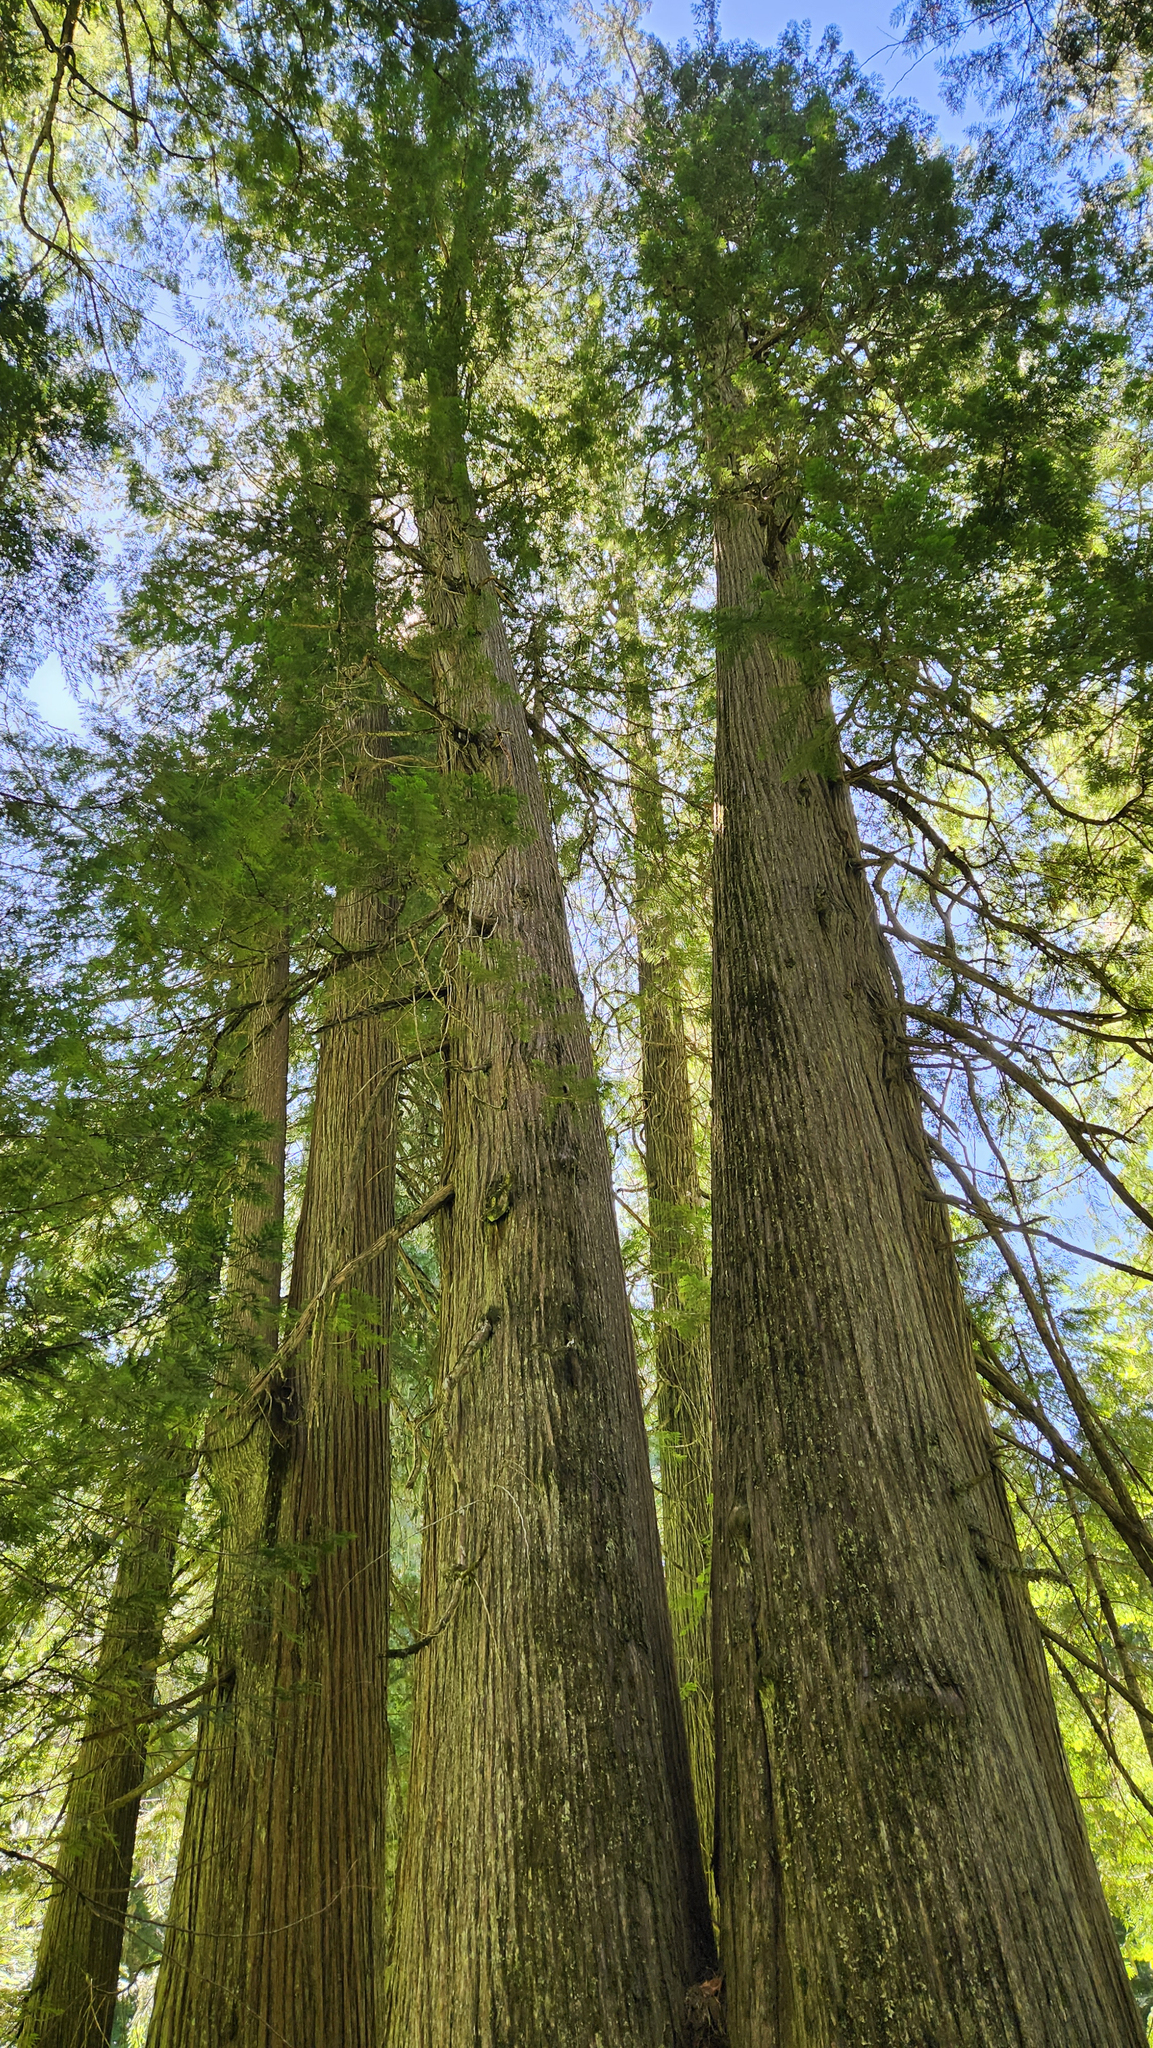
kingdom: Plantae
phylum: Tracheophyta
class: Pinopsida
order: Pinales
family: Cupressaceae
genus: Thuja
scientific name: Thuja plicata
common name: Western red-cedar
